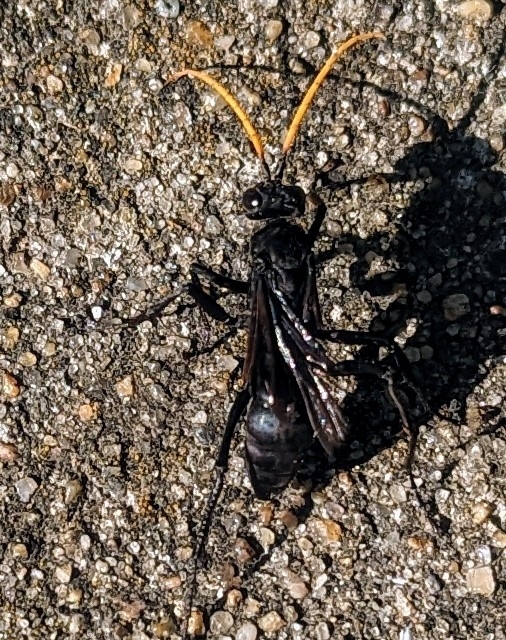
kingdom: Animalia
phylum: Arthropoda
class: Insecta
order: Hymenoptera
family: Pompilidae
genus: Entypus
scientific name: Entypus fulvicornis
